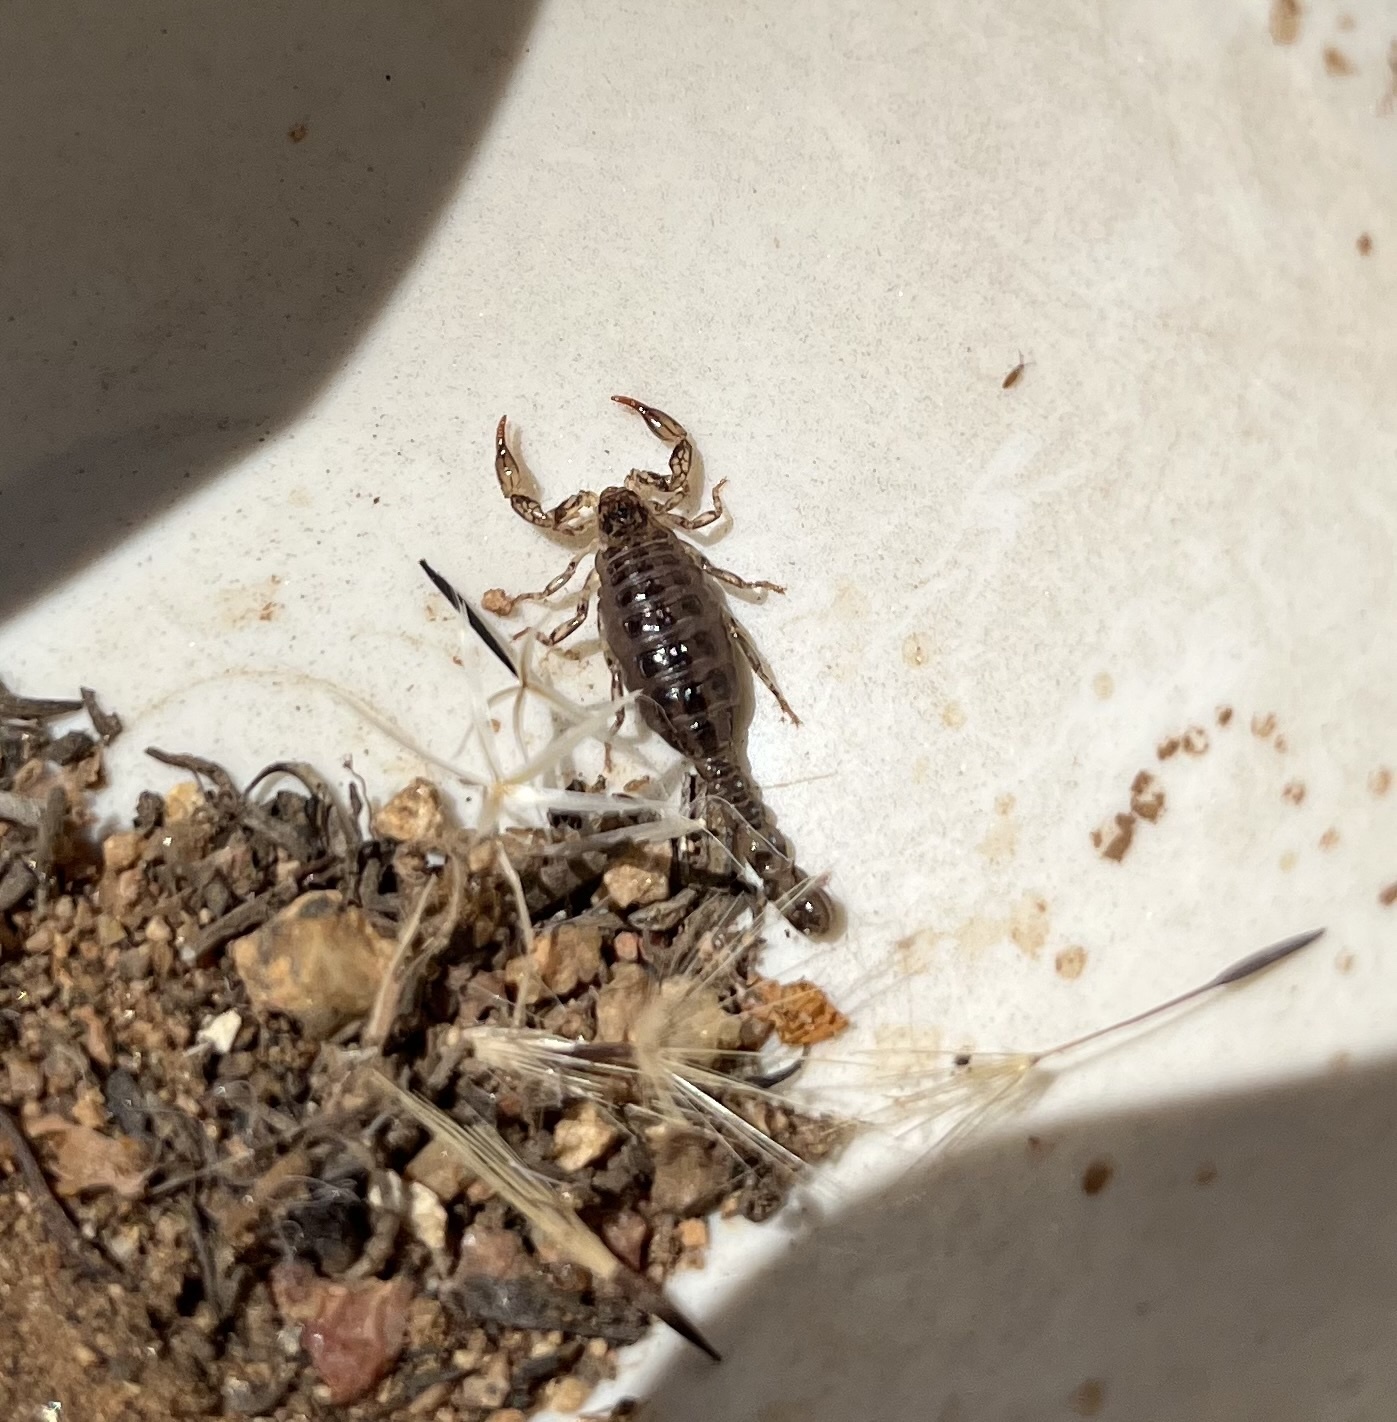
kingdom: Animalia
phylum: Arthropoda
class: Arachnida
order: Scorpiones
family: Superstitioniidae
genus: Superstitionia
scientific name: Superstitionia donensis
